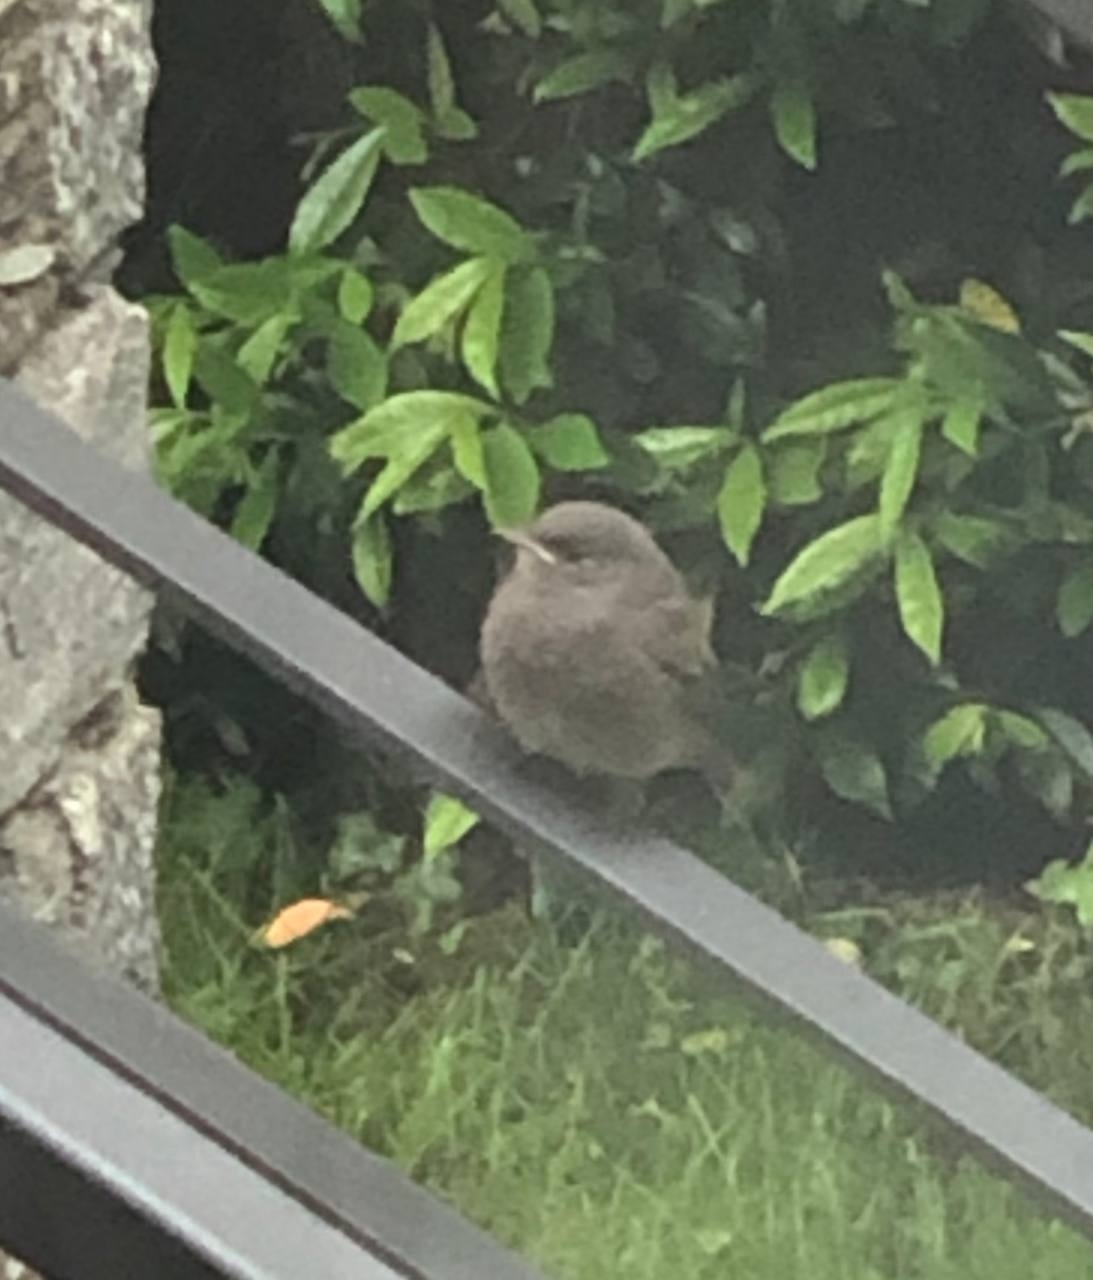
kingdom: Animalia
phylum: Chordata
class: Aves
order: Passeriformes
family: Muscicapidae
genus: Phoenicurus
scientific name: Phoenicurus ochruros
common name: Black redstart
